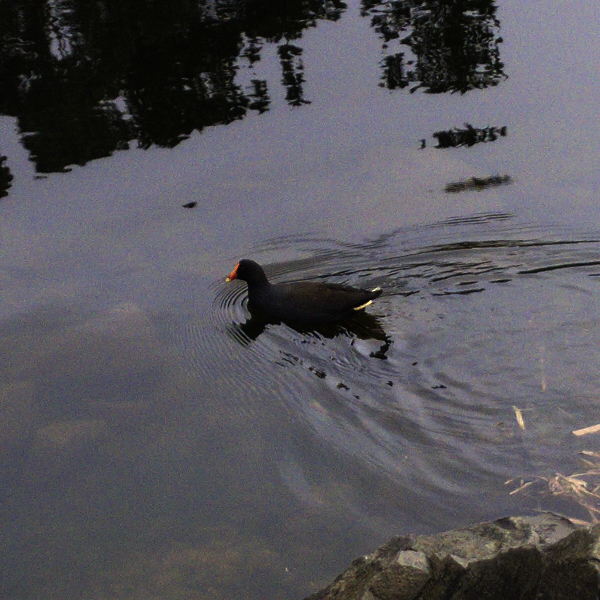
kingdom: Animalia
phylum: Chordata
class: Aves
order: Gruiformes
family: Rallidae
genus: Gallinula
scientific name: Gallinula tenebrosa
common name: Dusky moorhen
